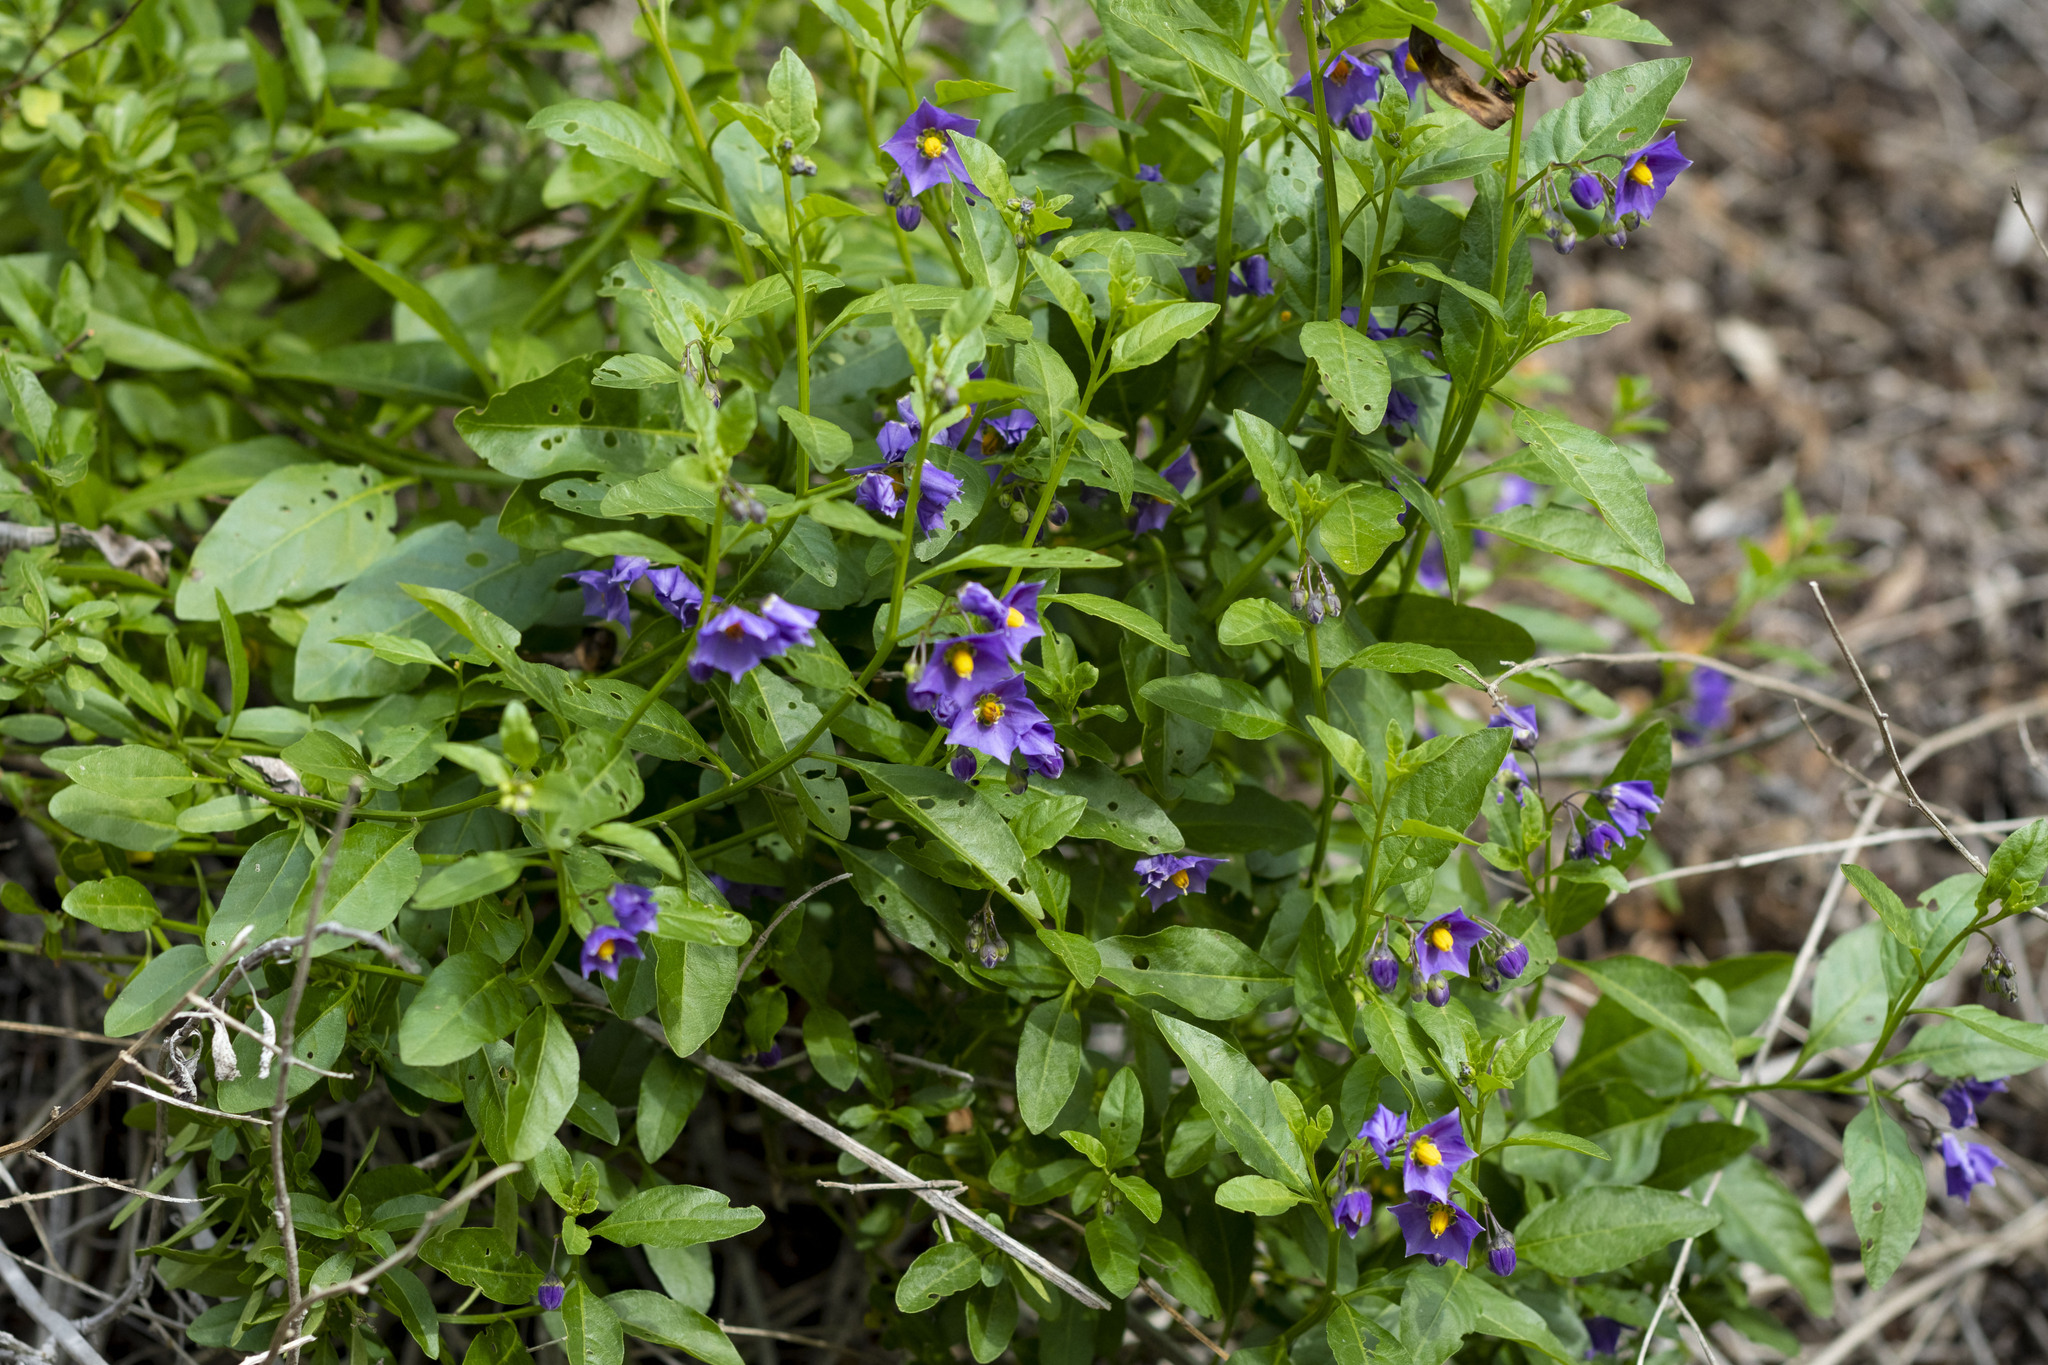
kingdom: Plantae
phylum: Tracheophyta
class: Magnoliopsida
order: Solanales
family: Solanaceae
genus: Solanum
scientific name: Solanum umbelliferum
